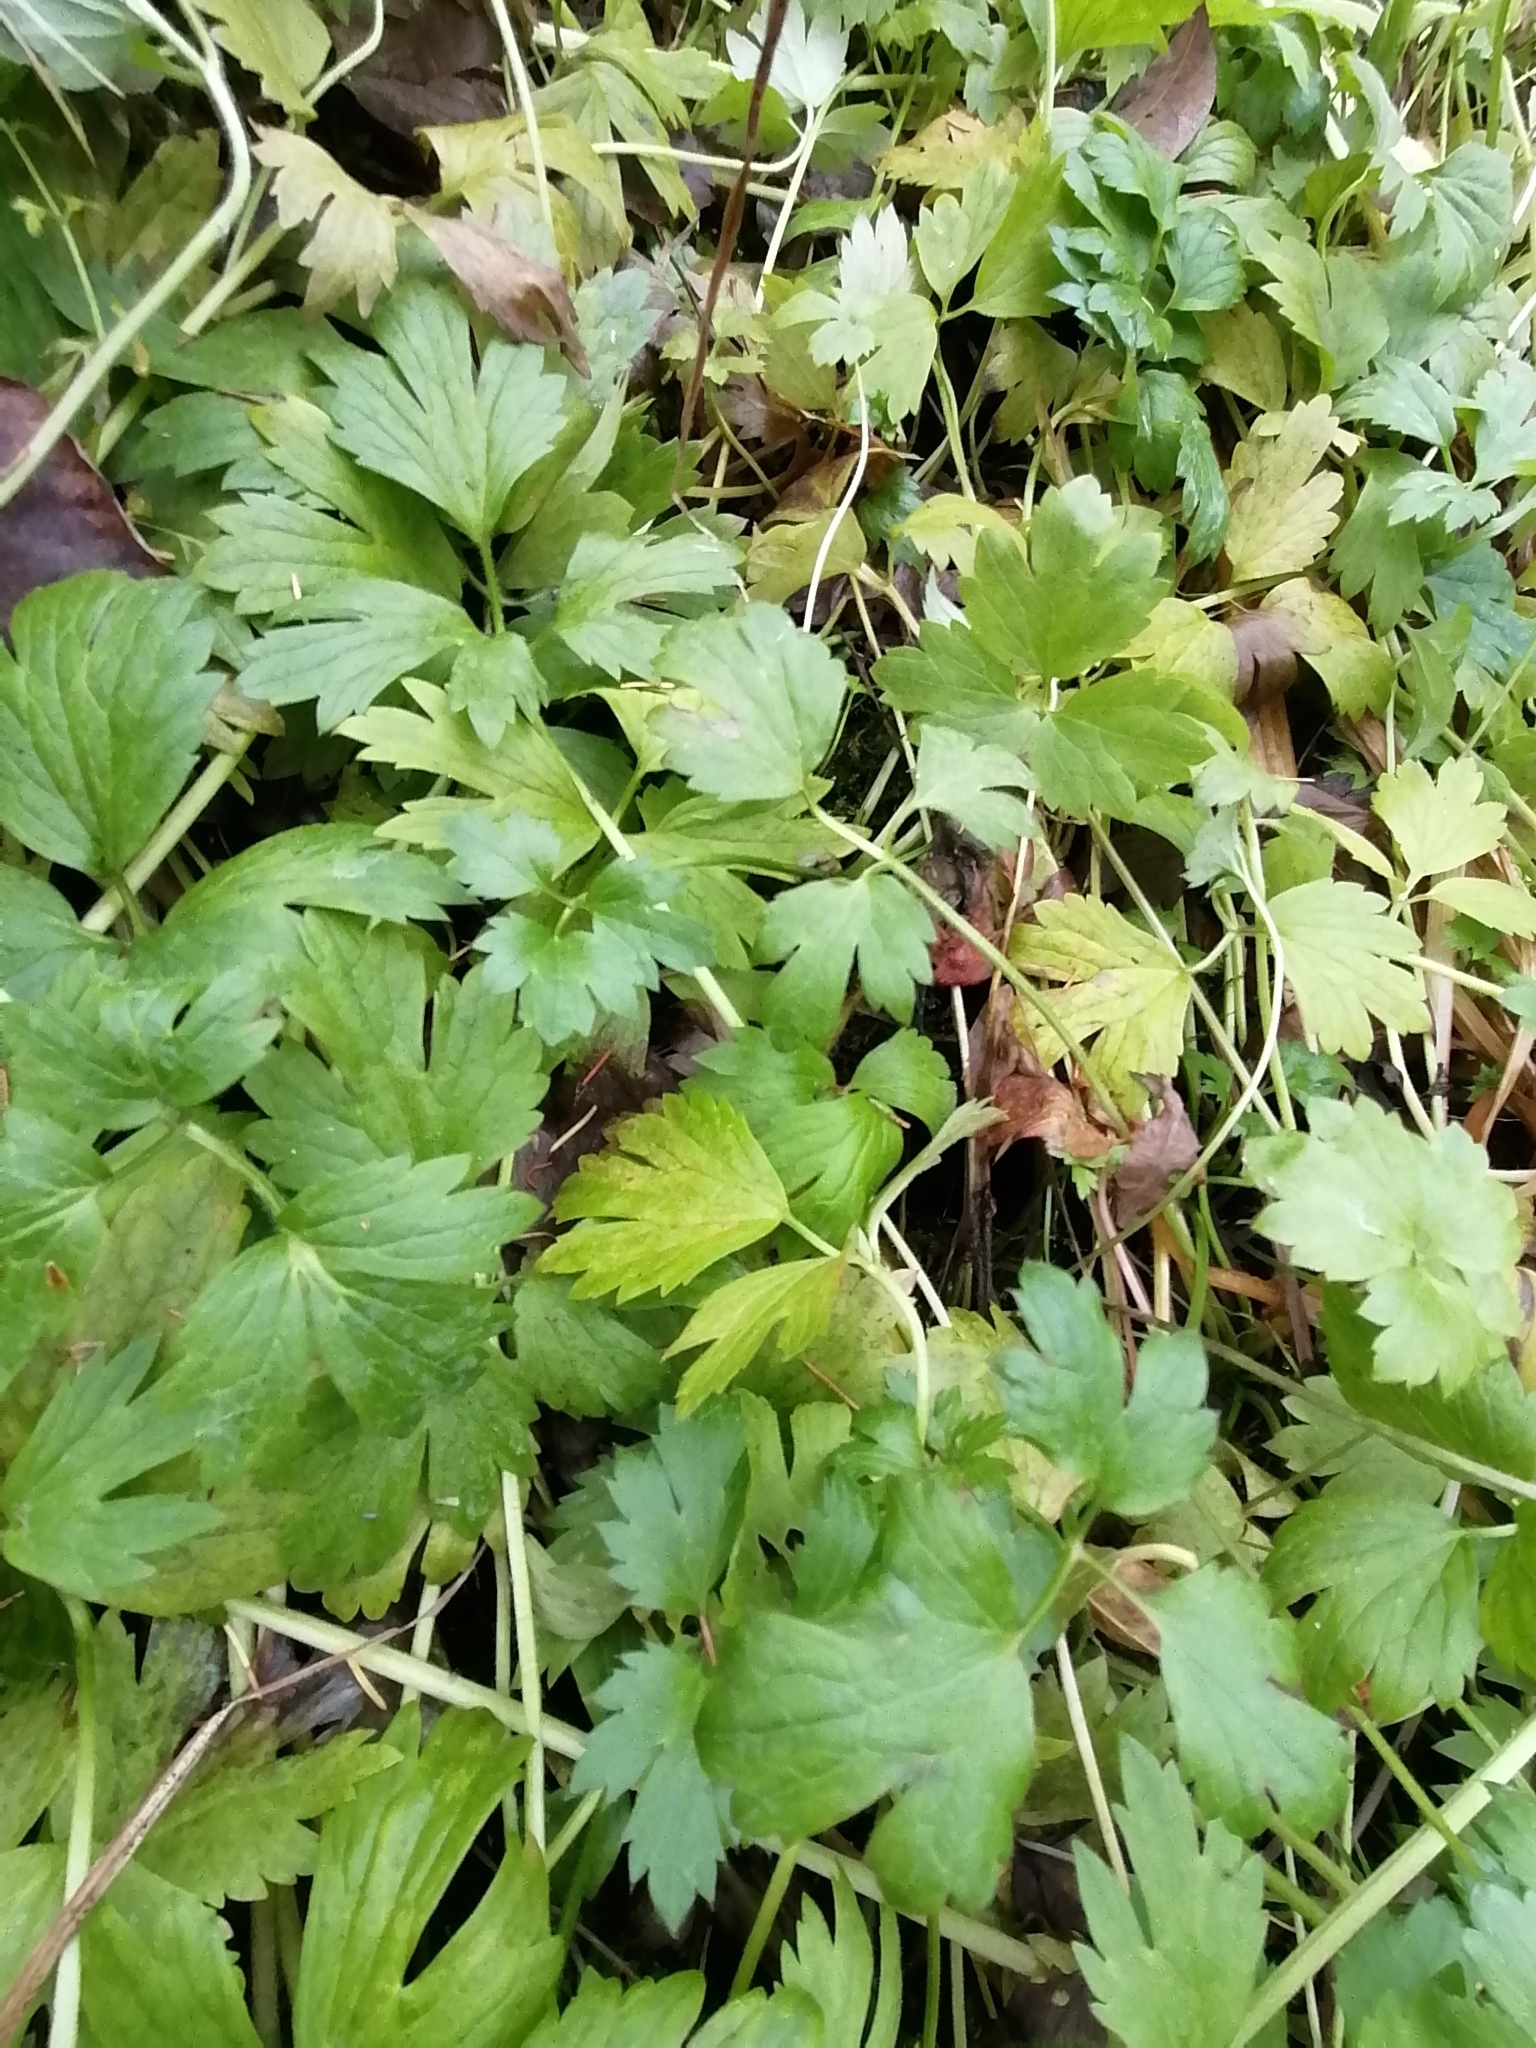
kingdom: Plantae
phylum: Tracheophyta
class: Magnoliopsida
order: Ranunculales
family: Ranunculaceae
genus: Ranunculus
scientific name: Ranunculus repens
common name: Creeping buttercup
